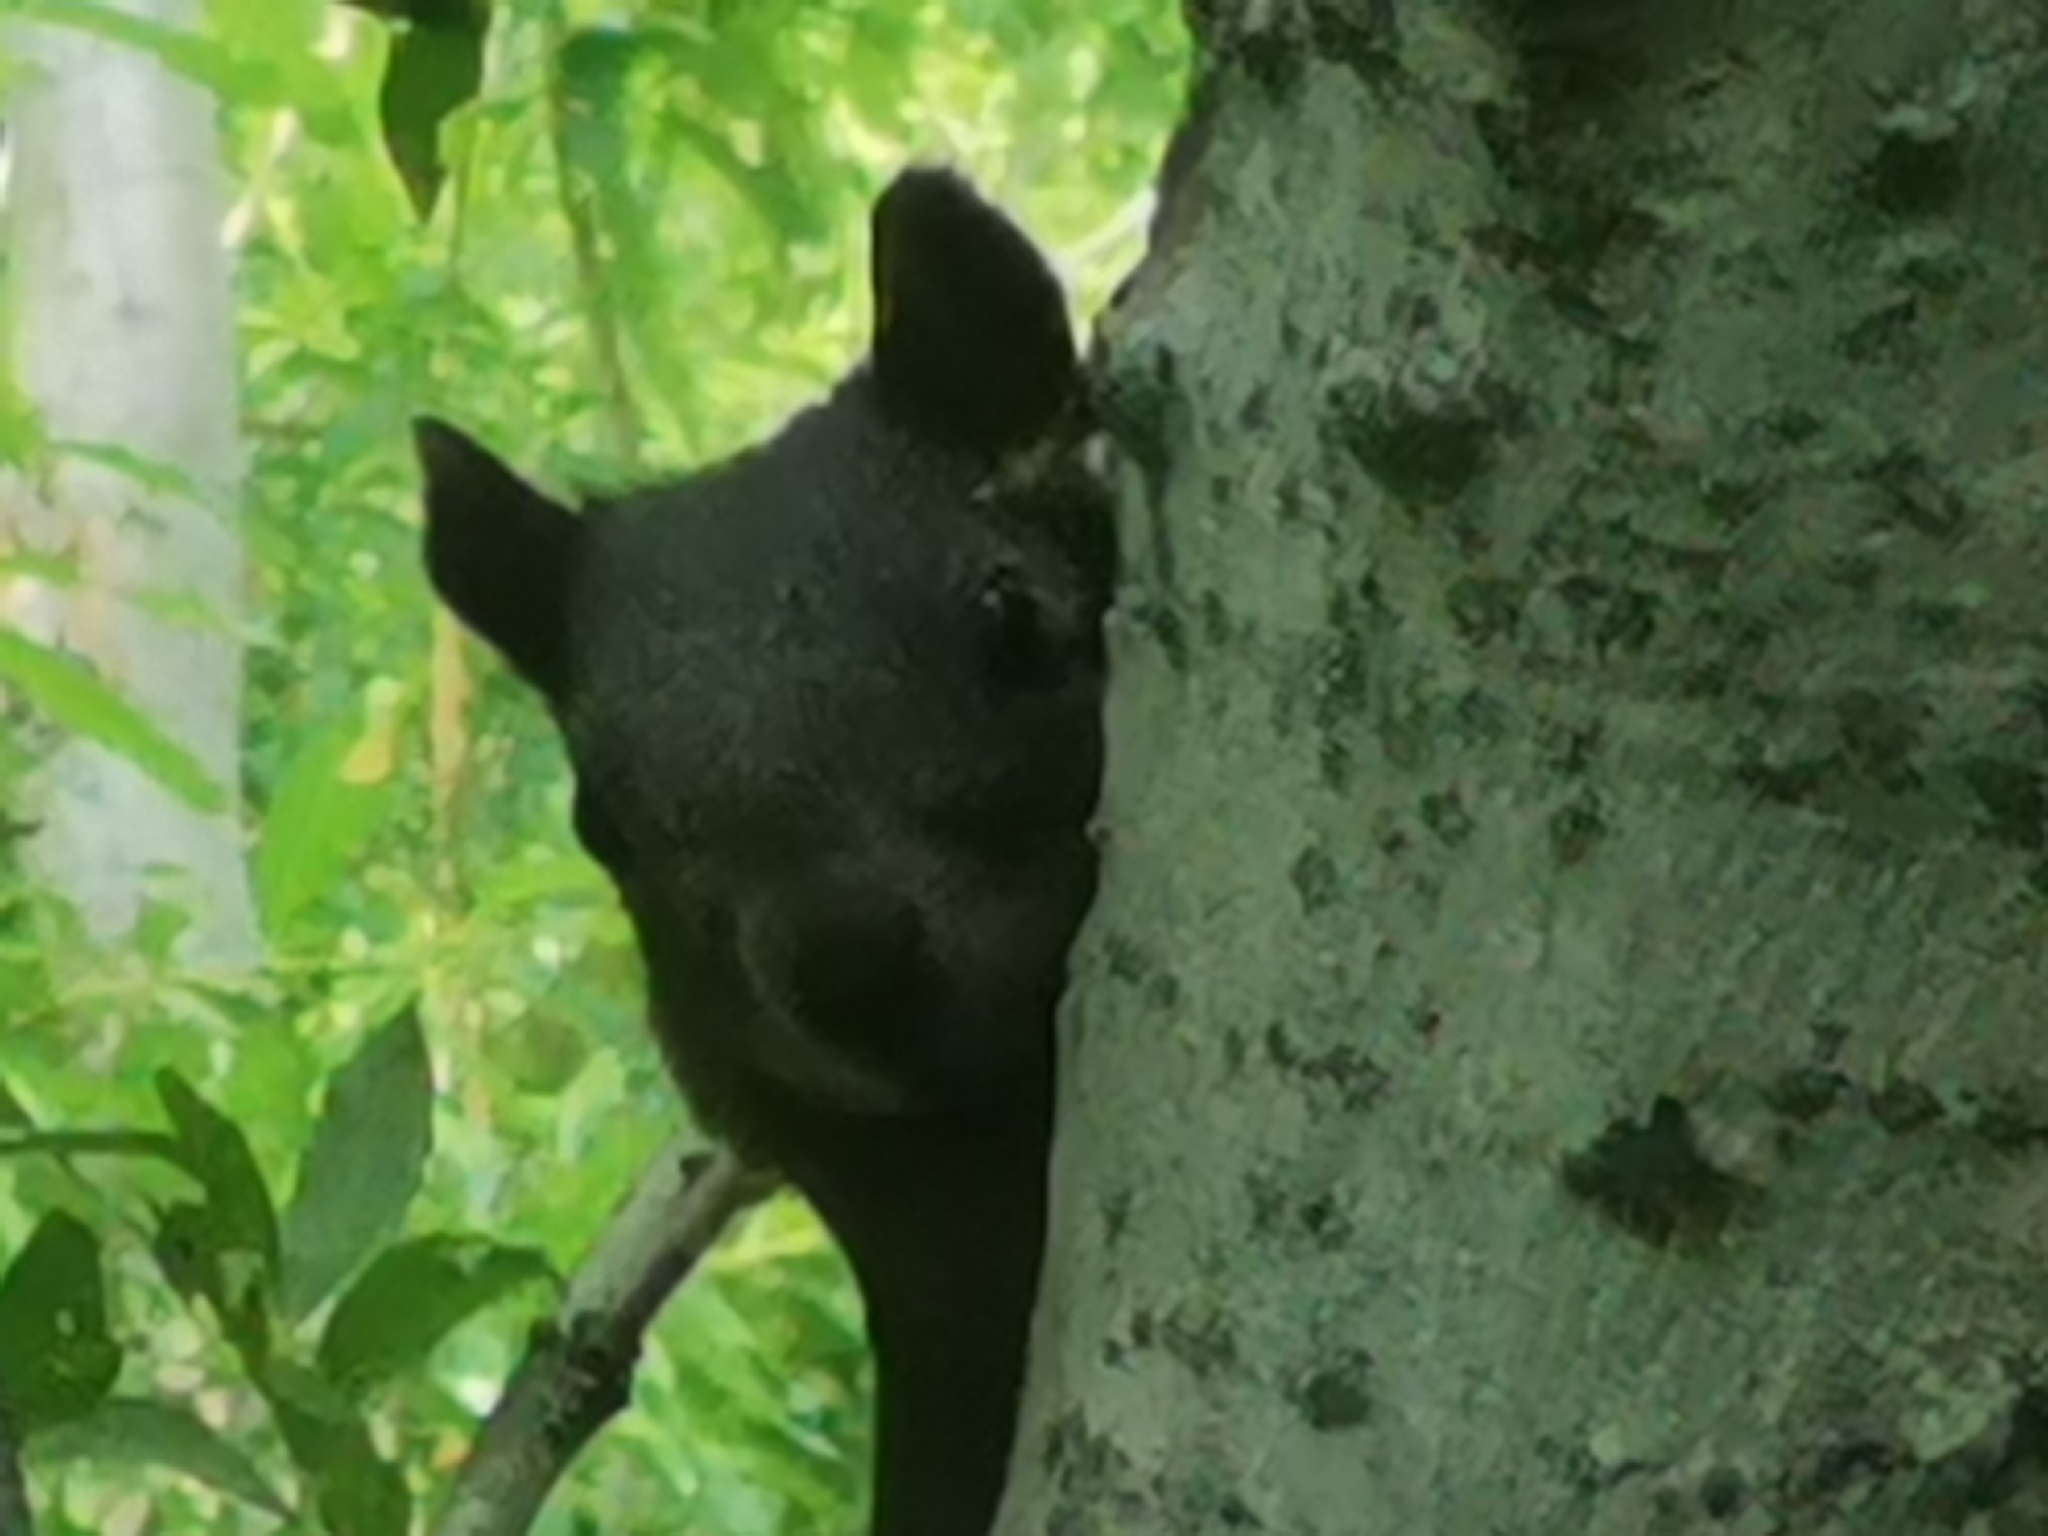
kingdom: Animalia
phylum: Chordata
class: Mammalia
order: Rodentia
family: Sciuridae
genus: Sciurus
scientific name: Sciurus vulgaris
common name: Eurasian red squirrel
